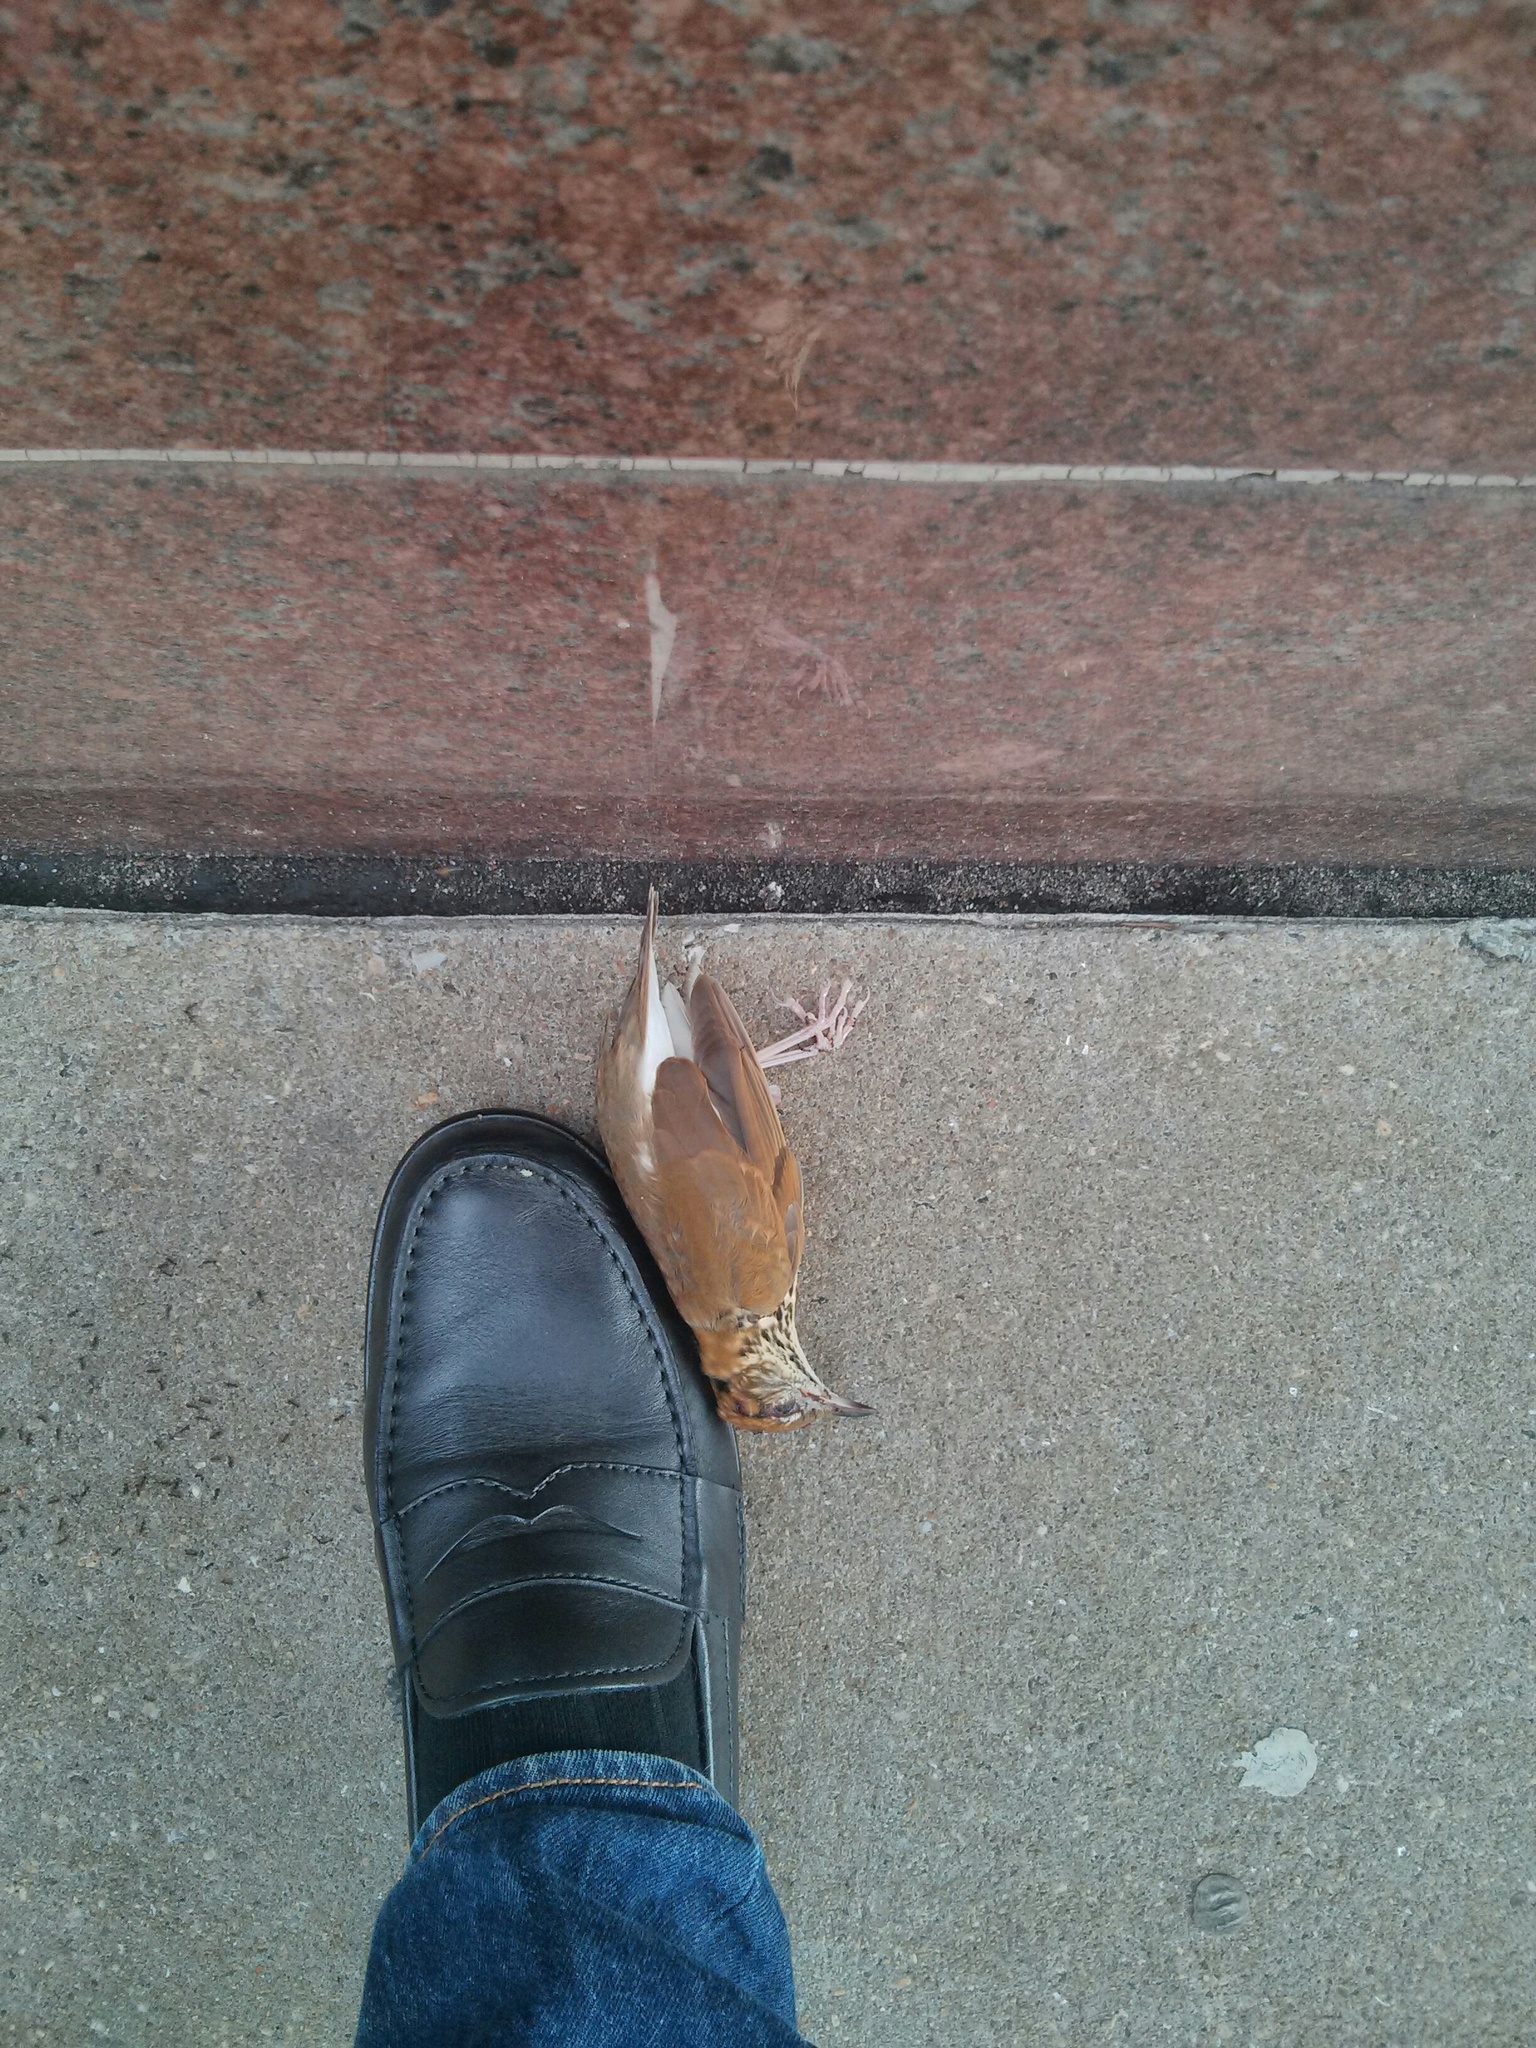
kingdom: Animalia
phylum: Chordata
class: Aves
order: Passeriformes
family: Turdidae
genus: Hylocichla
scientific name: Hylocichla mustelina
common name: Wood thrush
